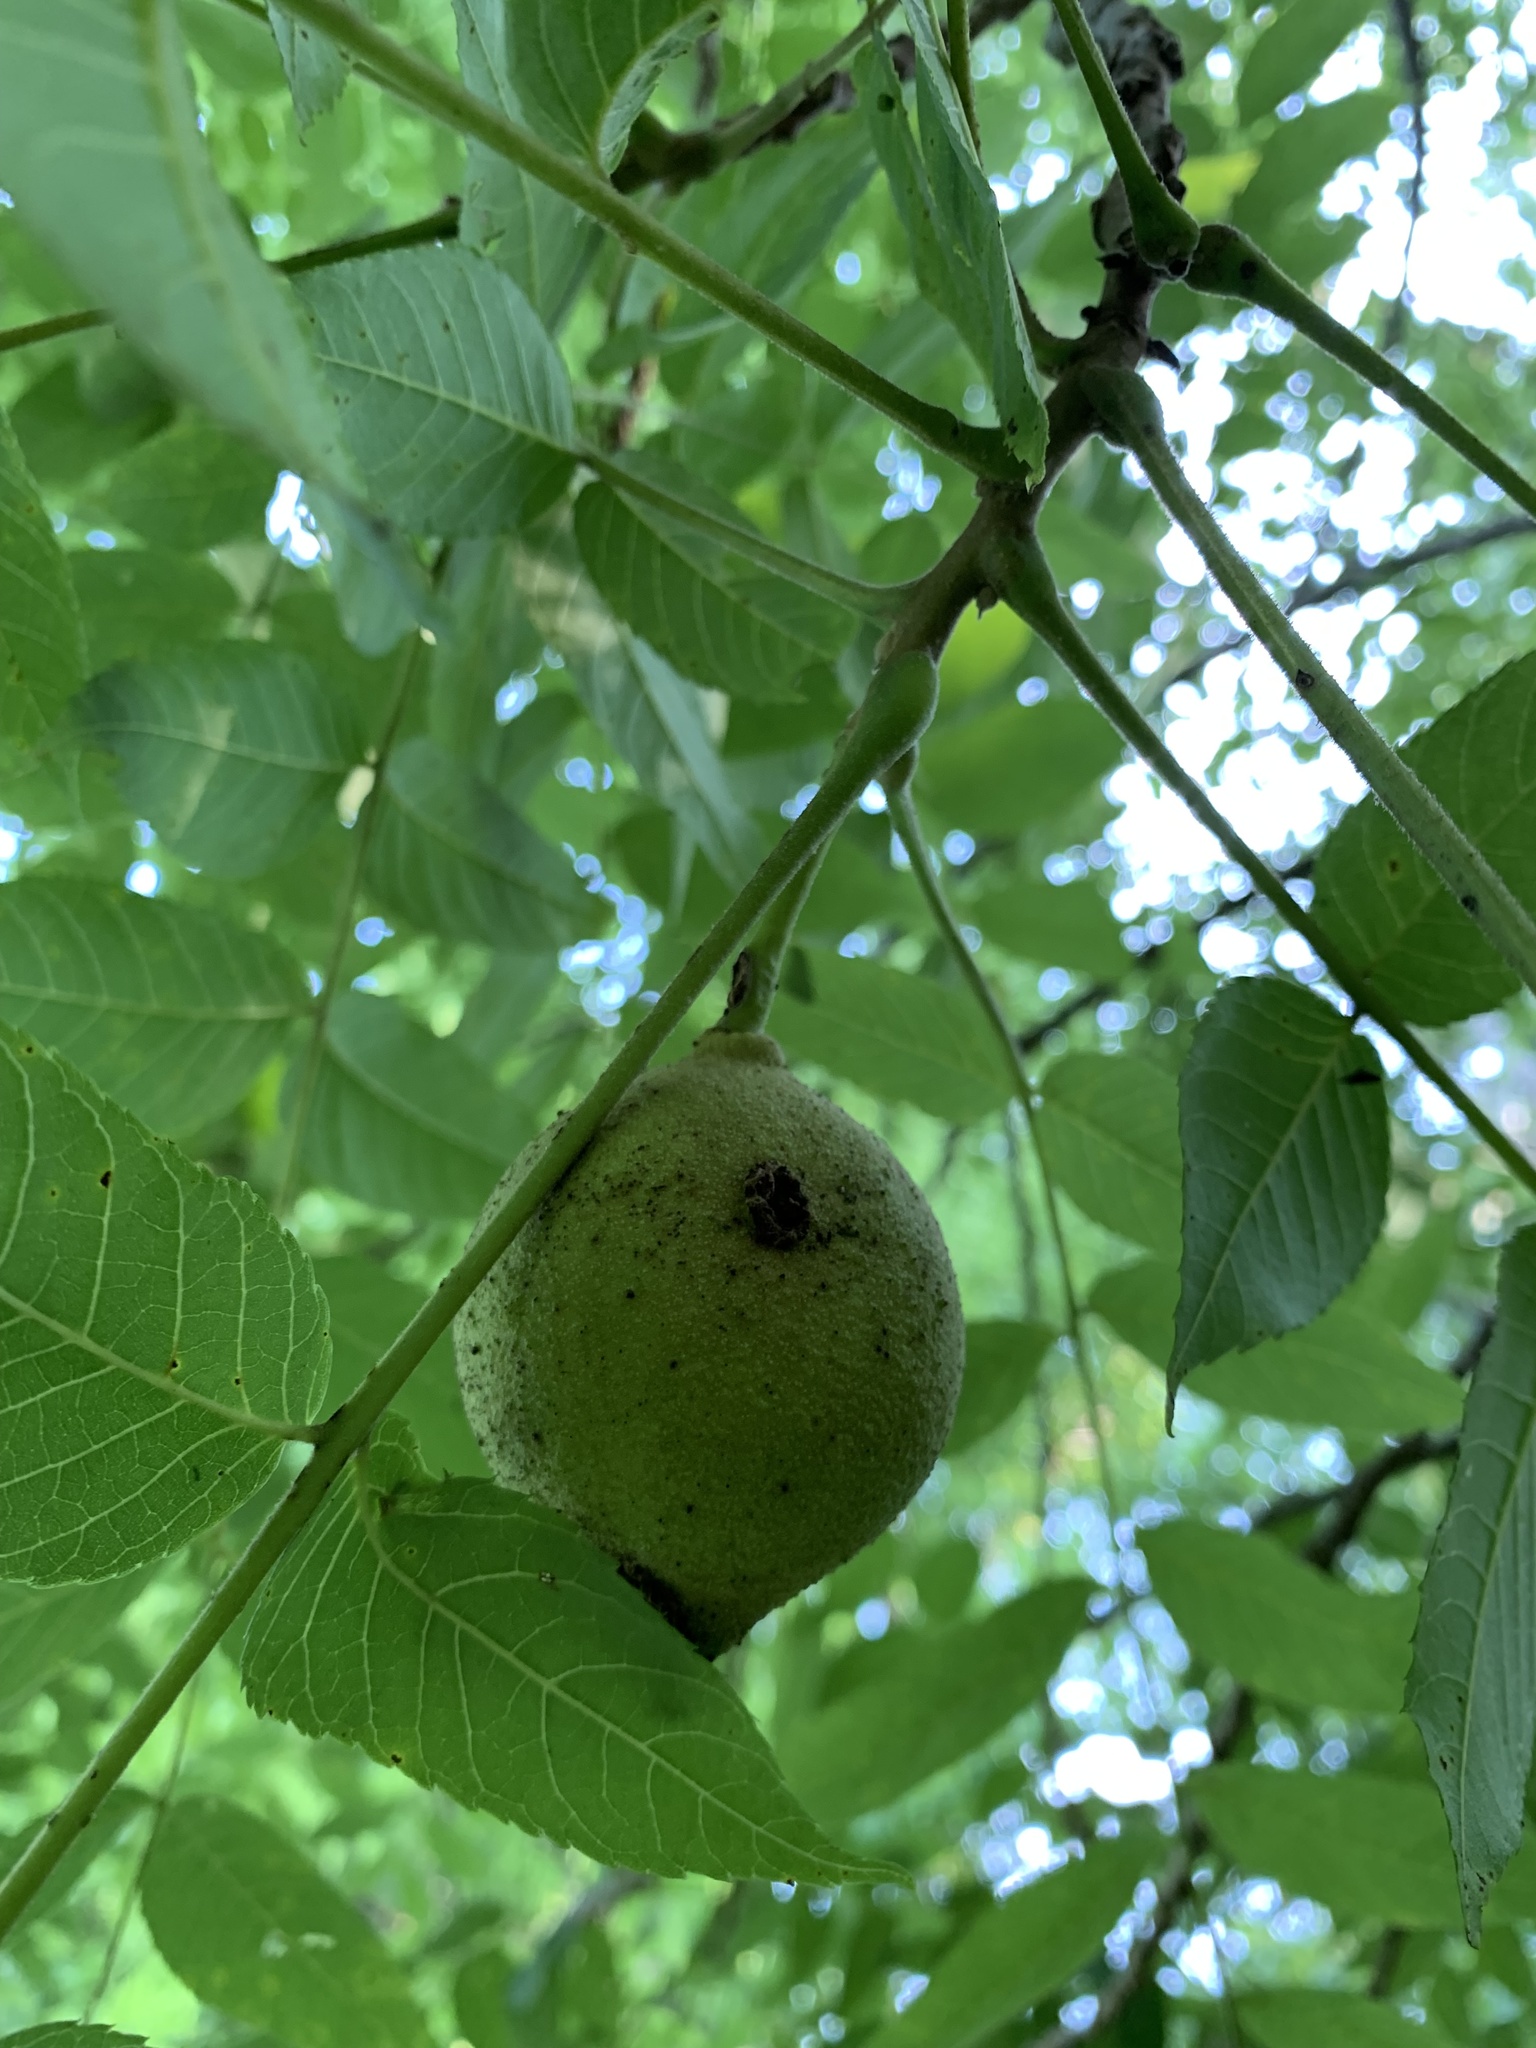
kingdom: Plantae
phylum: Tracheophyta
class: Magnoliopsida
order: Fagales
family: Juglandaceae
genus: Juglans
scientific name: Juglans nigra
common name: Black walnut
